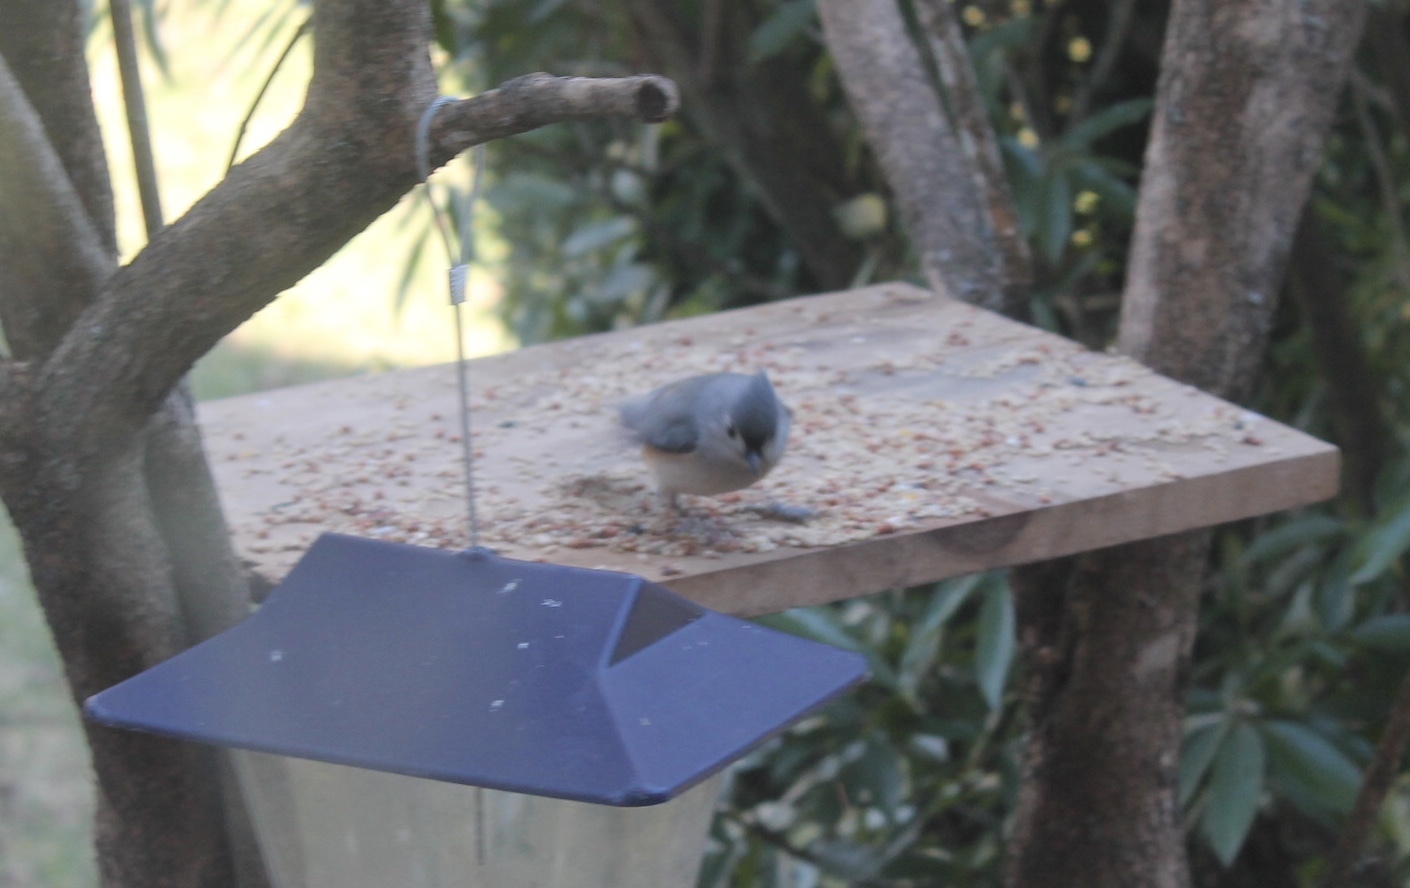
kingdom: Animalia
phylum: Chordata
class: Aves
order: Passeriformes
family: Paridae
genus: Baeolophus
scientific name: Baeolophus bicolor
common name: Tufted titmouse
